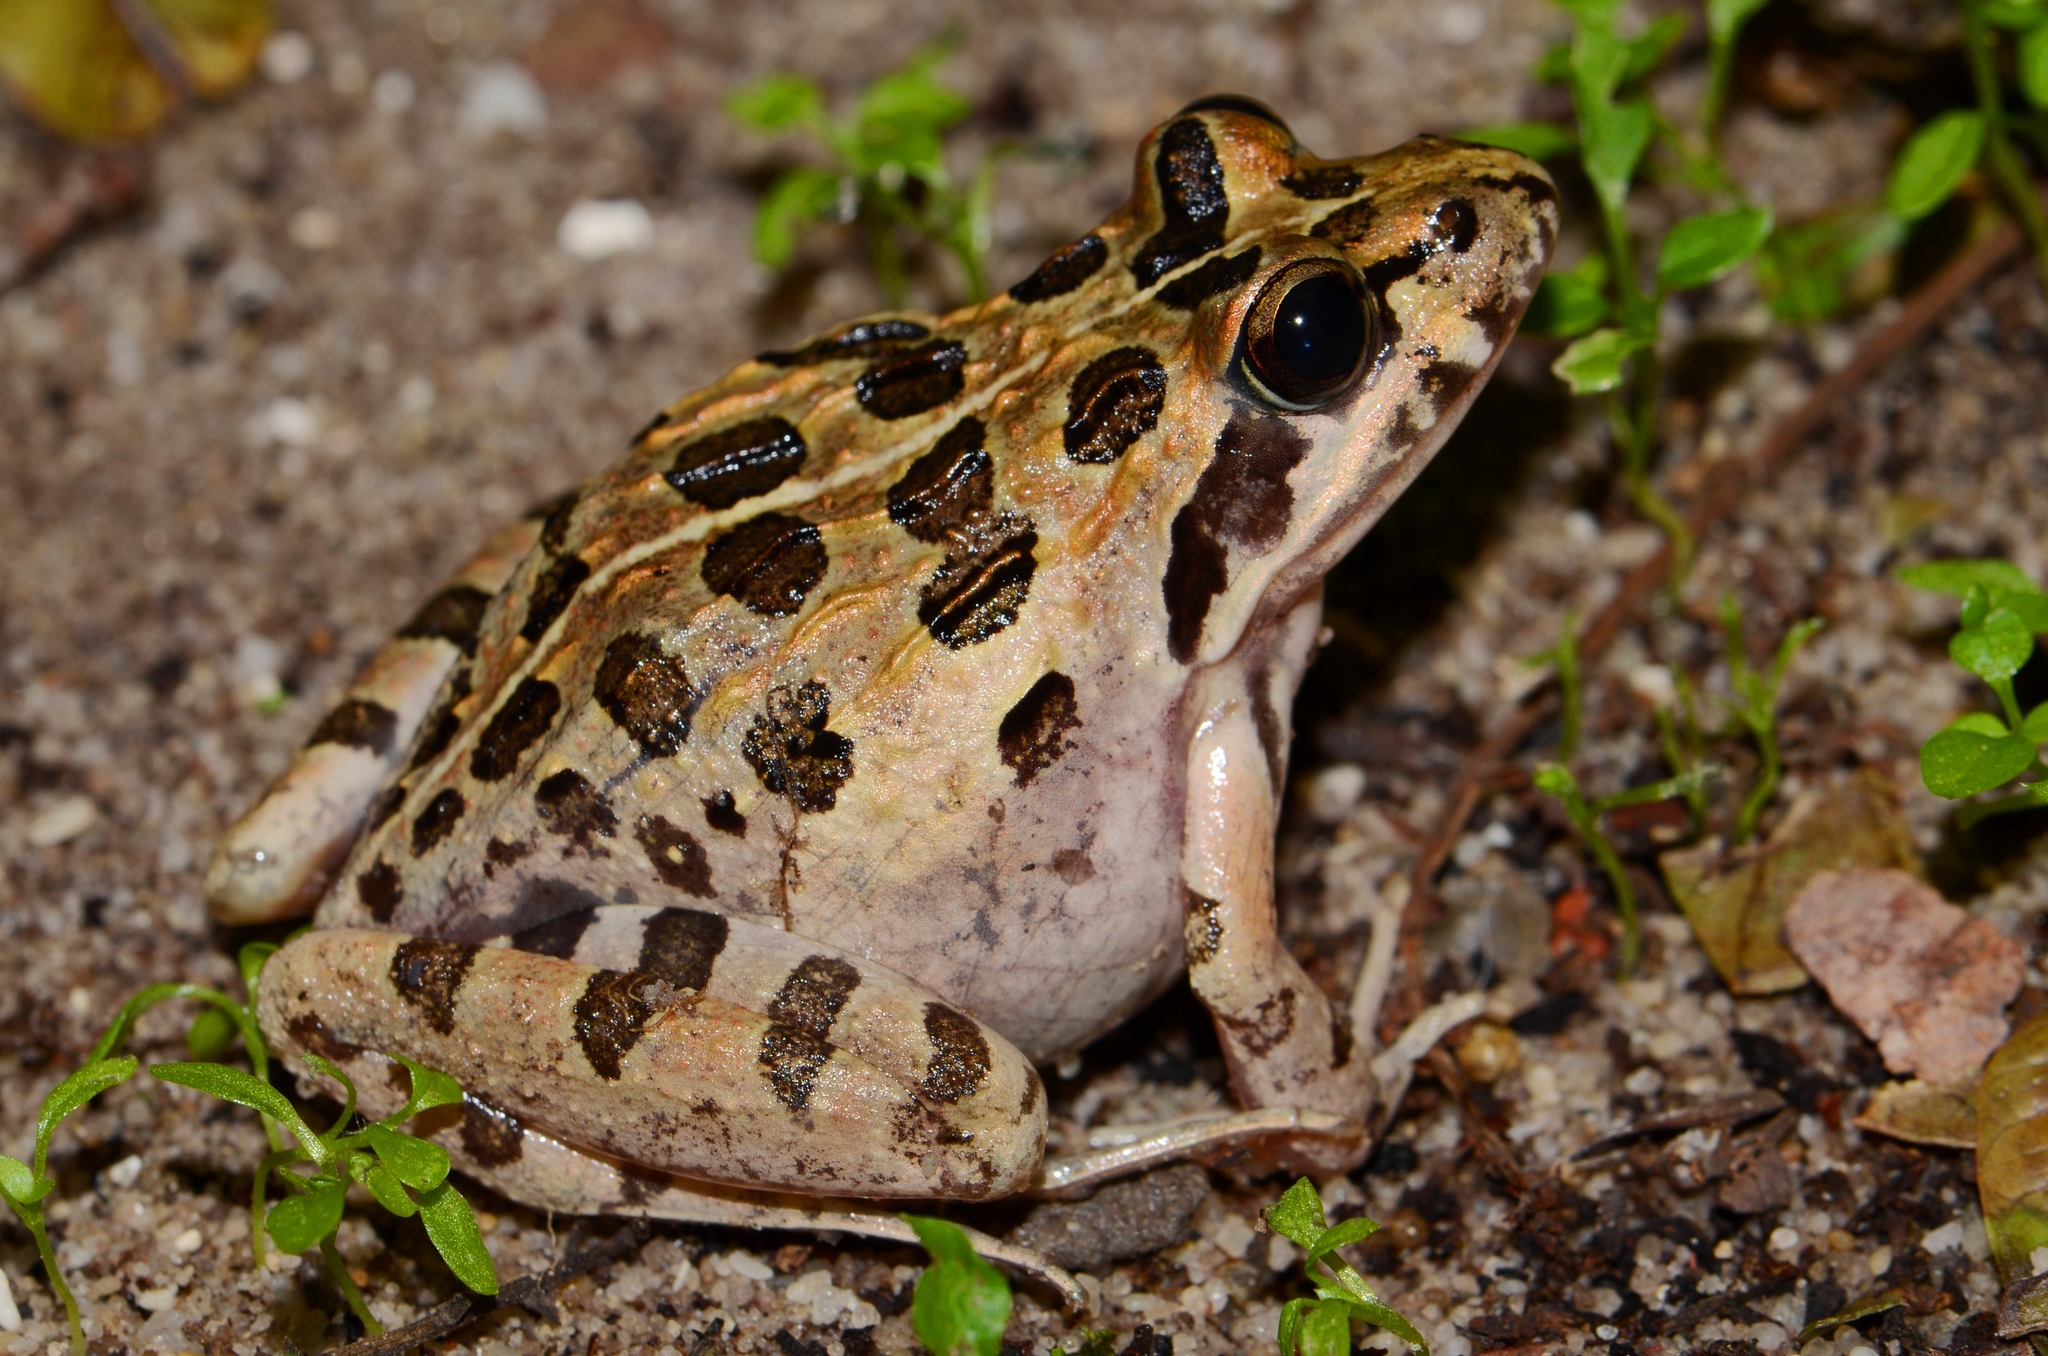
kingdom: Animalia
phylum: Chordata
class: Amphibia
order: Anura
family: Pyxicephalidae
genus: Strongylopus
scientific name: Strongylopus grayii
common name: Gray's stream frog
